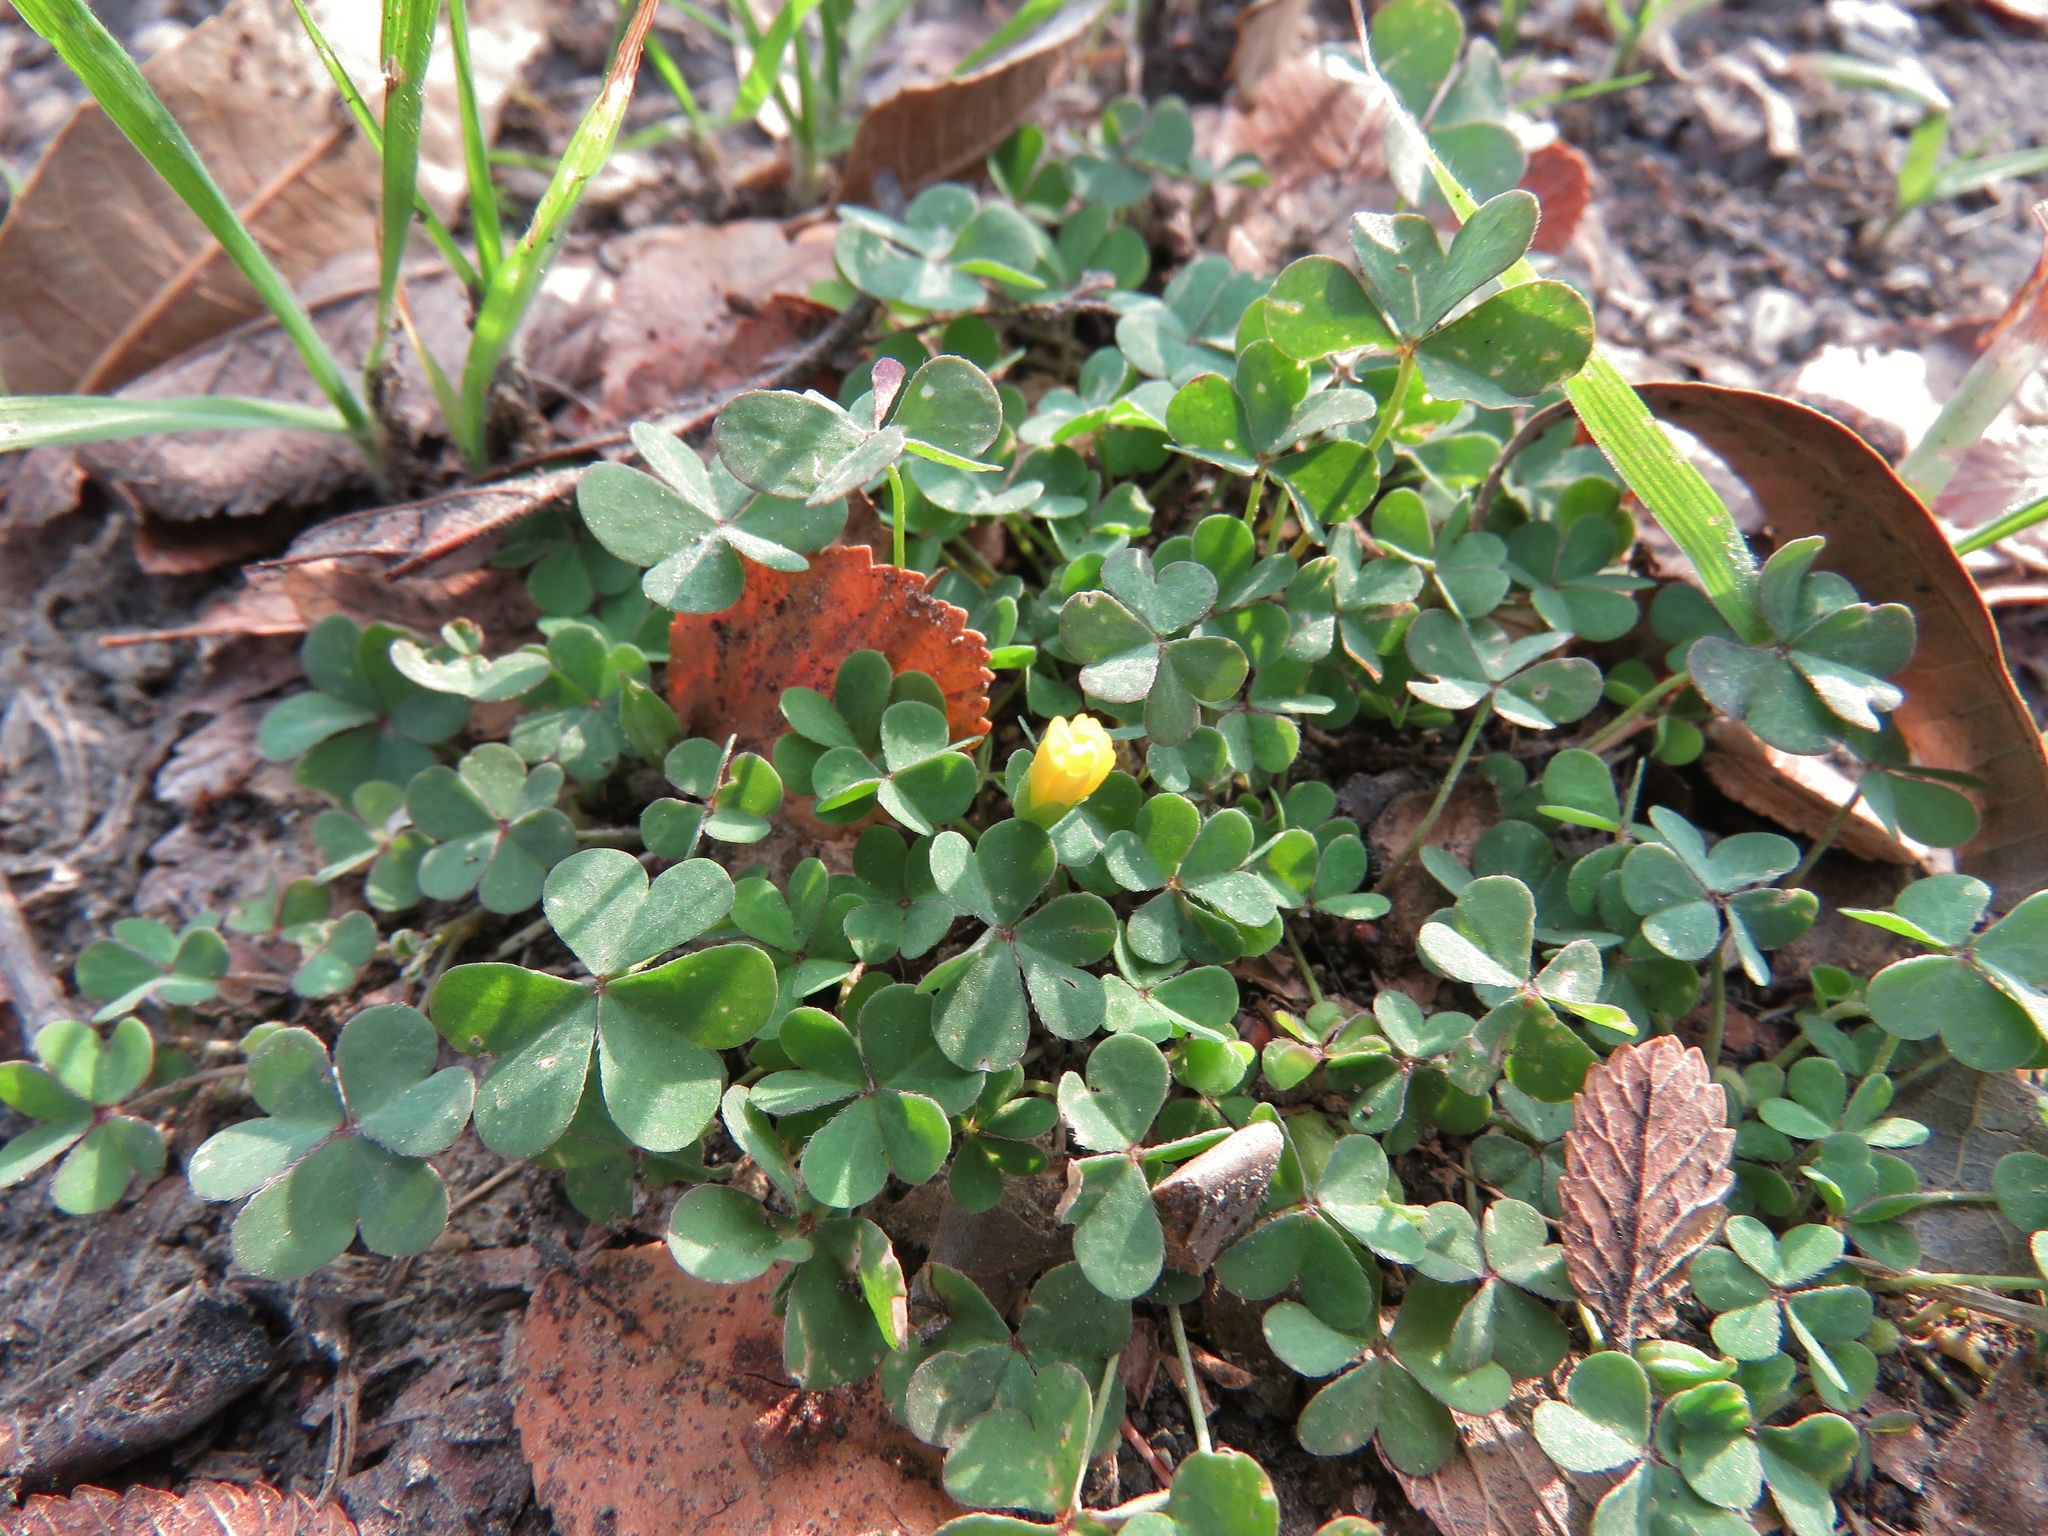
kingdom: Plantae
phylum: Tracheophyta
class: Magnoliopsida
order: Oxalidales
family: Oxalidaceae
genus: Oxalis
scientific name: Oxalis dillenii
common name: Sussex yellow-sorrel
